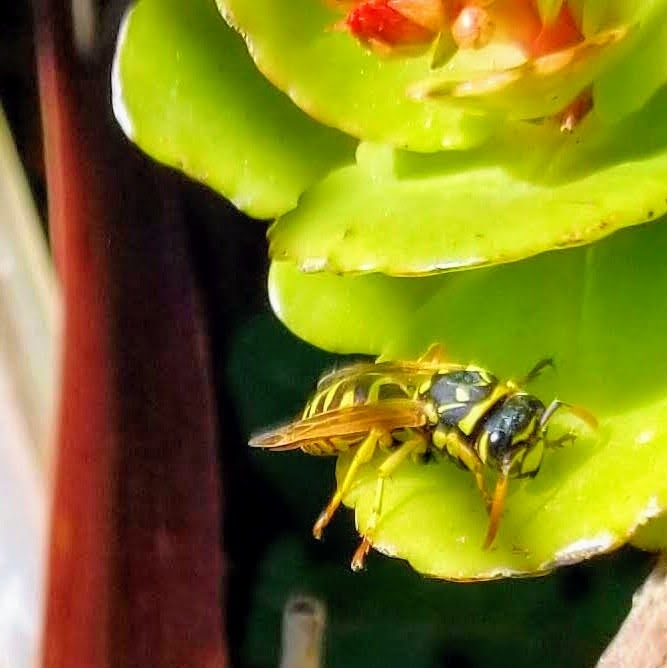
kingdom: Animalia
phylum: Arthropoda
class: Insecta
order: Hymenoptera
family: Eumenidae
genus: Polistes
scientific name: Polistes dominula
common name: Paper wasp
